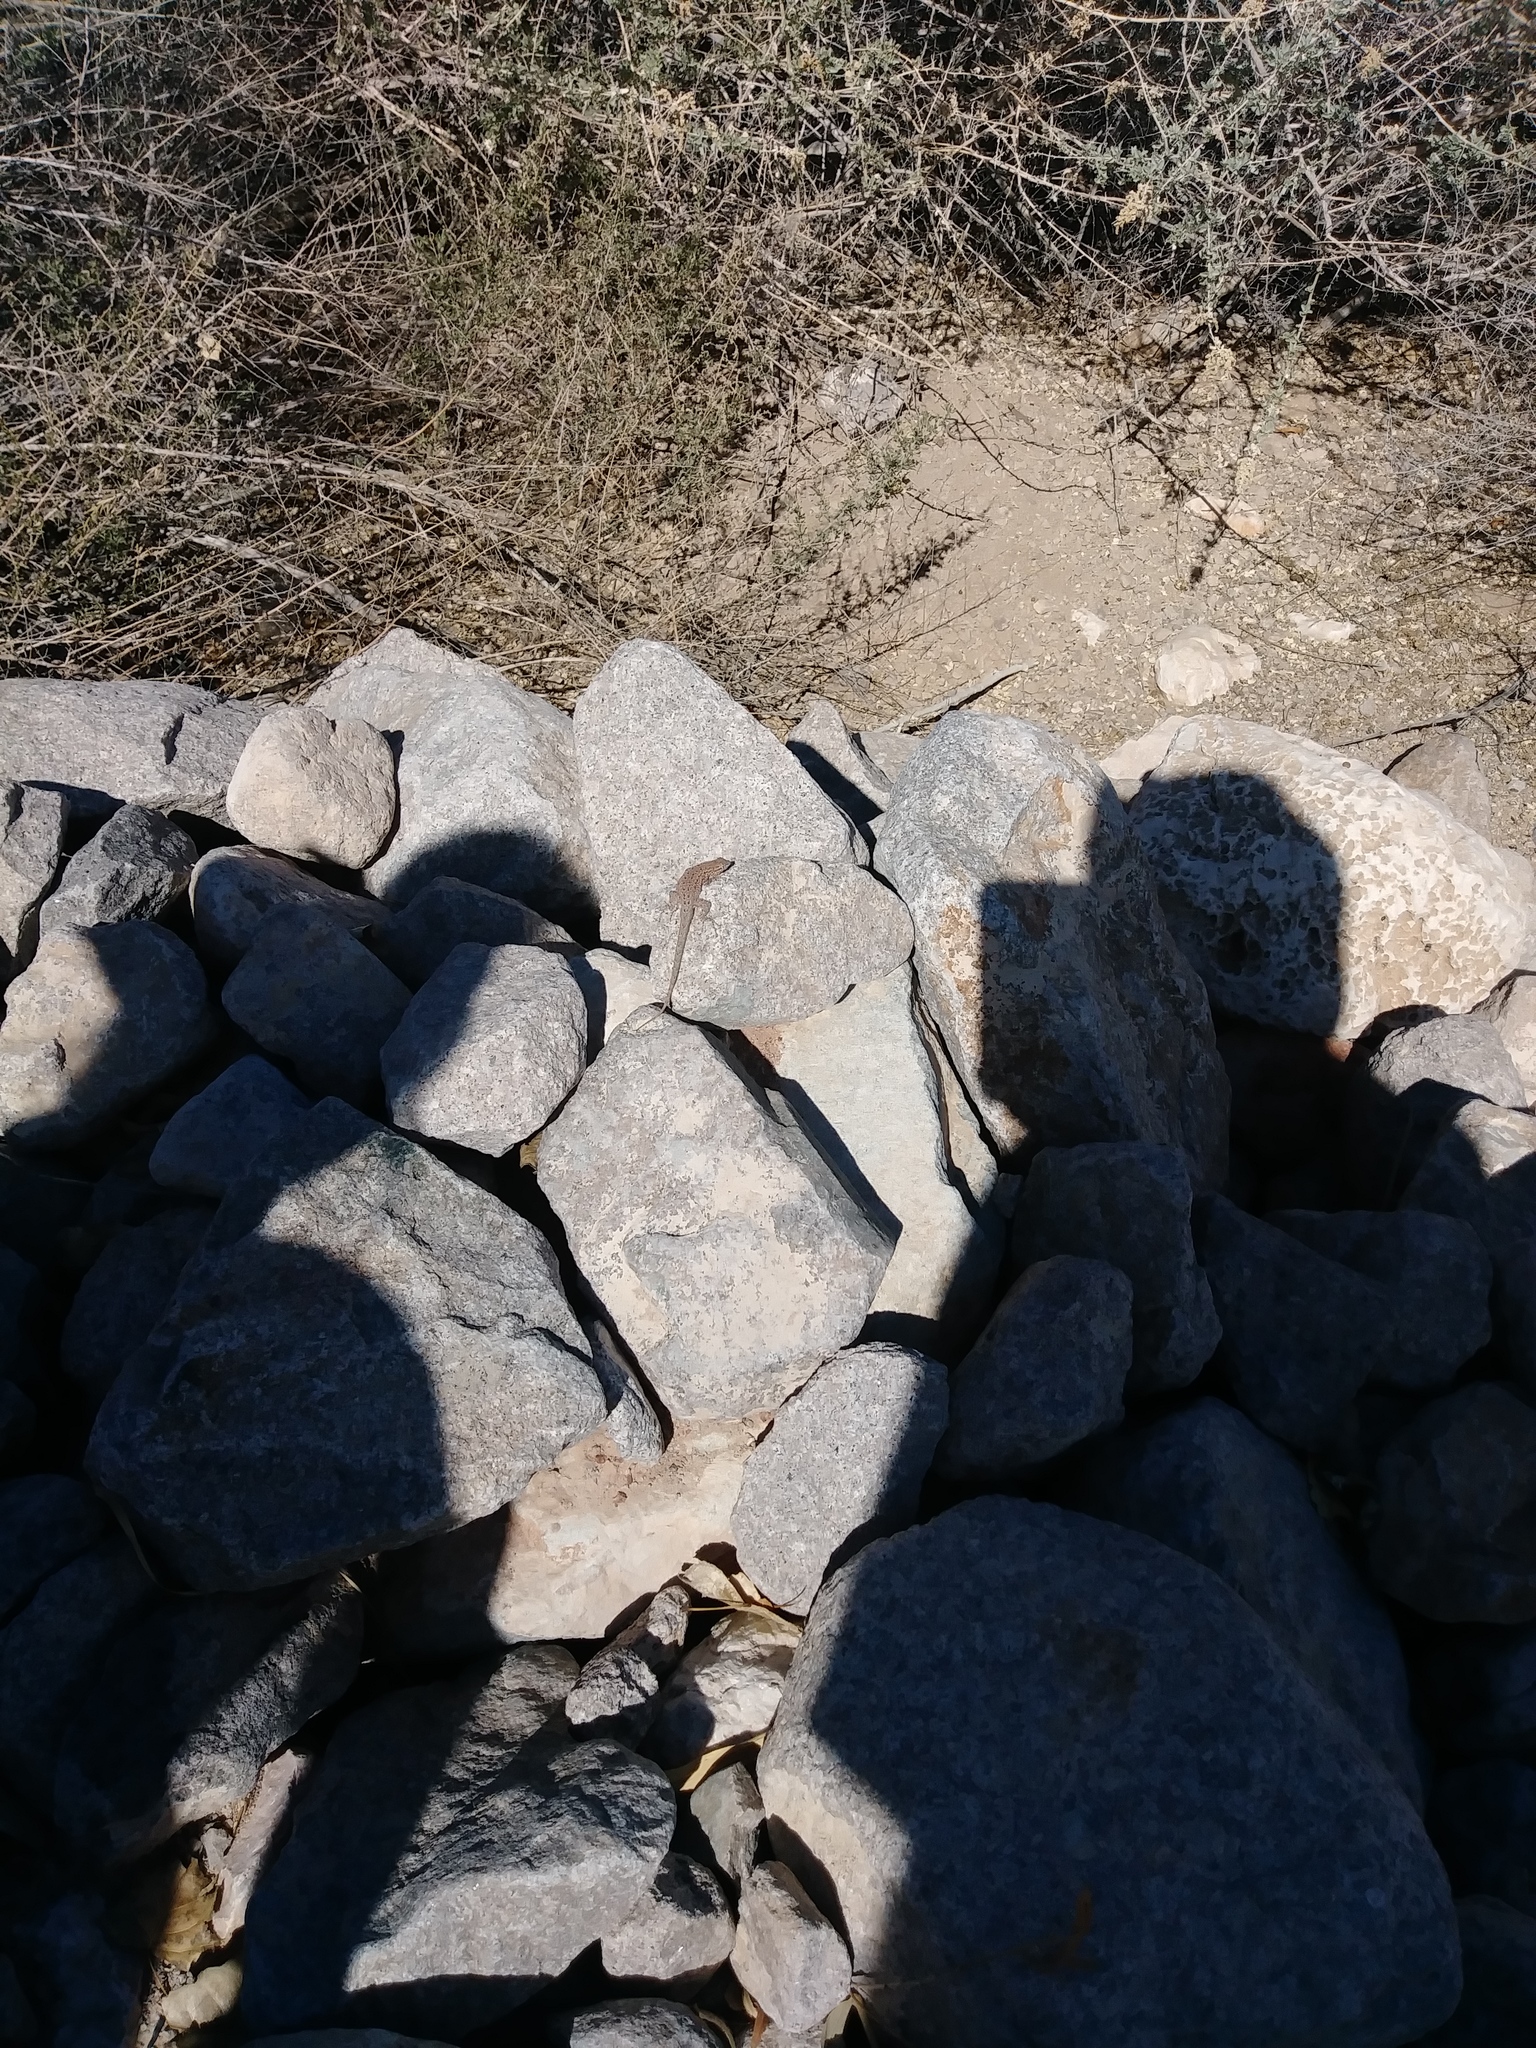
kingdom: Animalia
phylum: Chordata
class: Squamata
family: Phrynosomatidae
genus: Uta
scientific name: Uta stansburiana
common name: Side-blotched lizard
